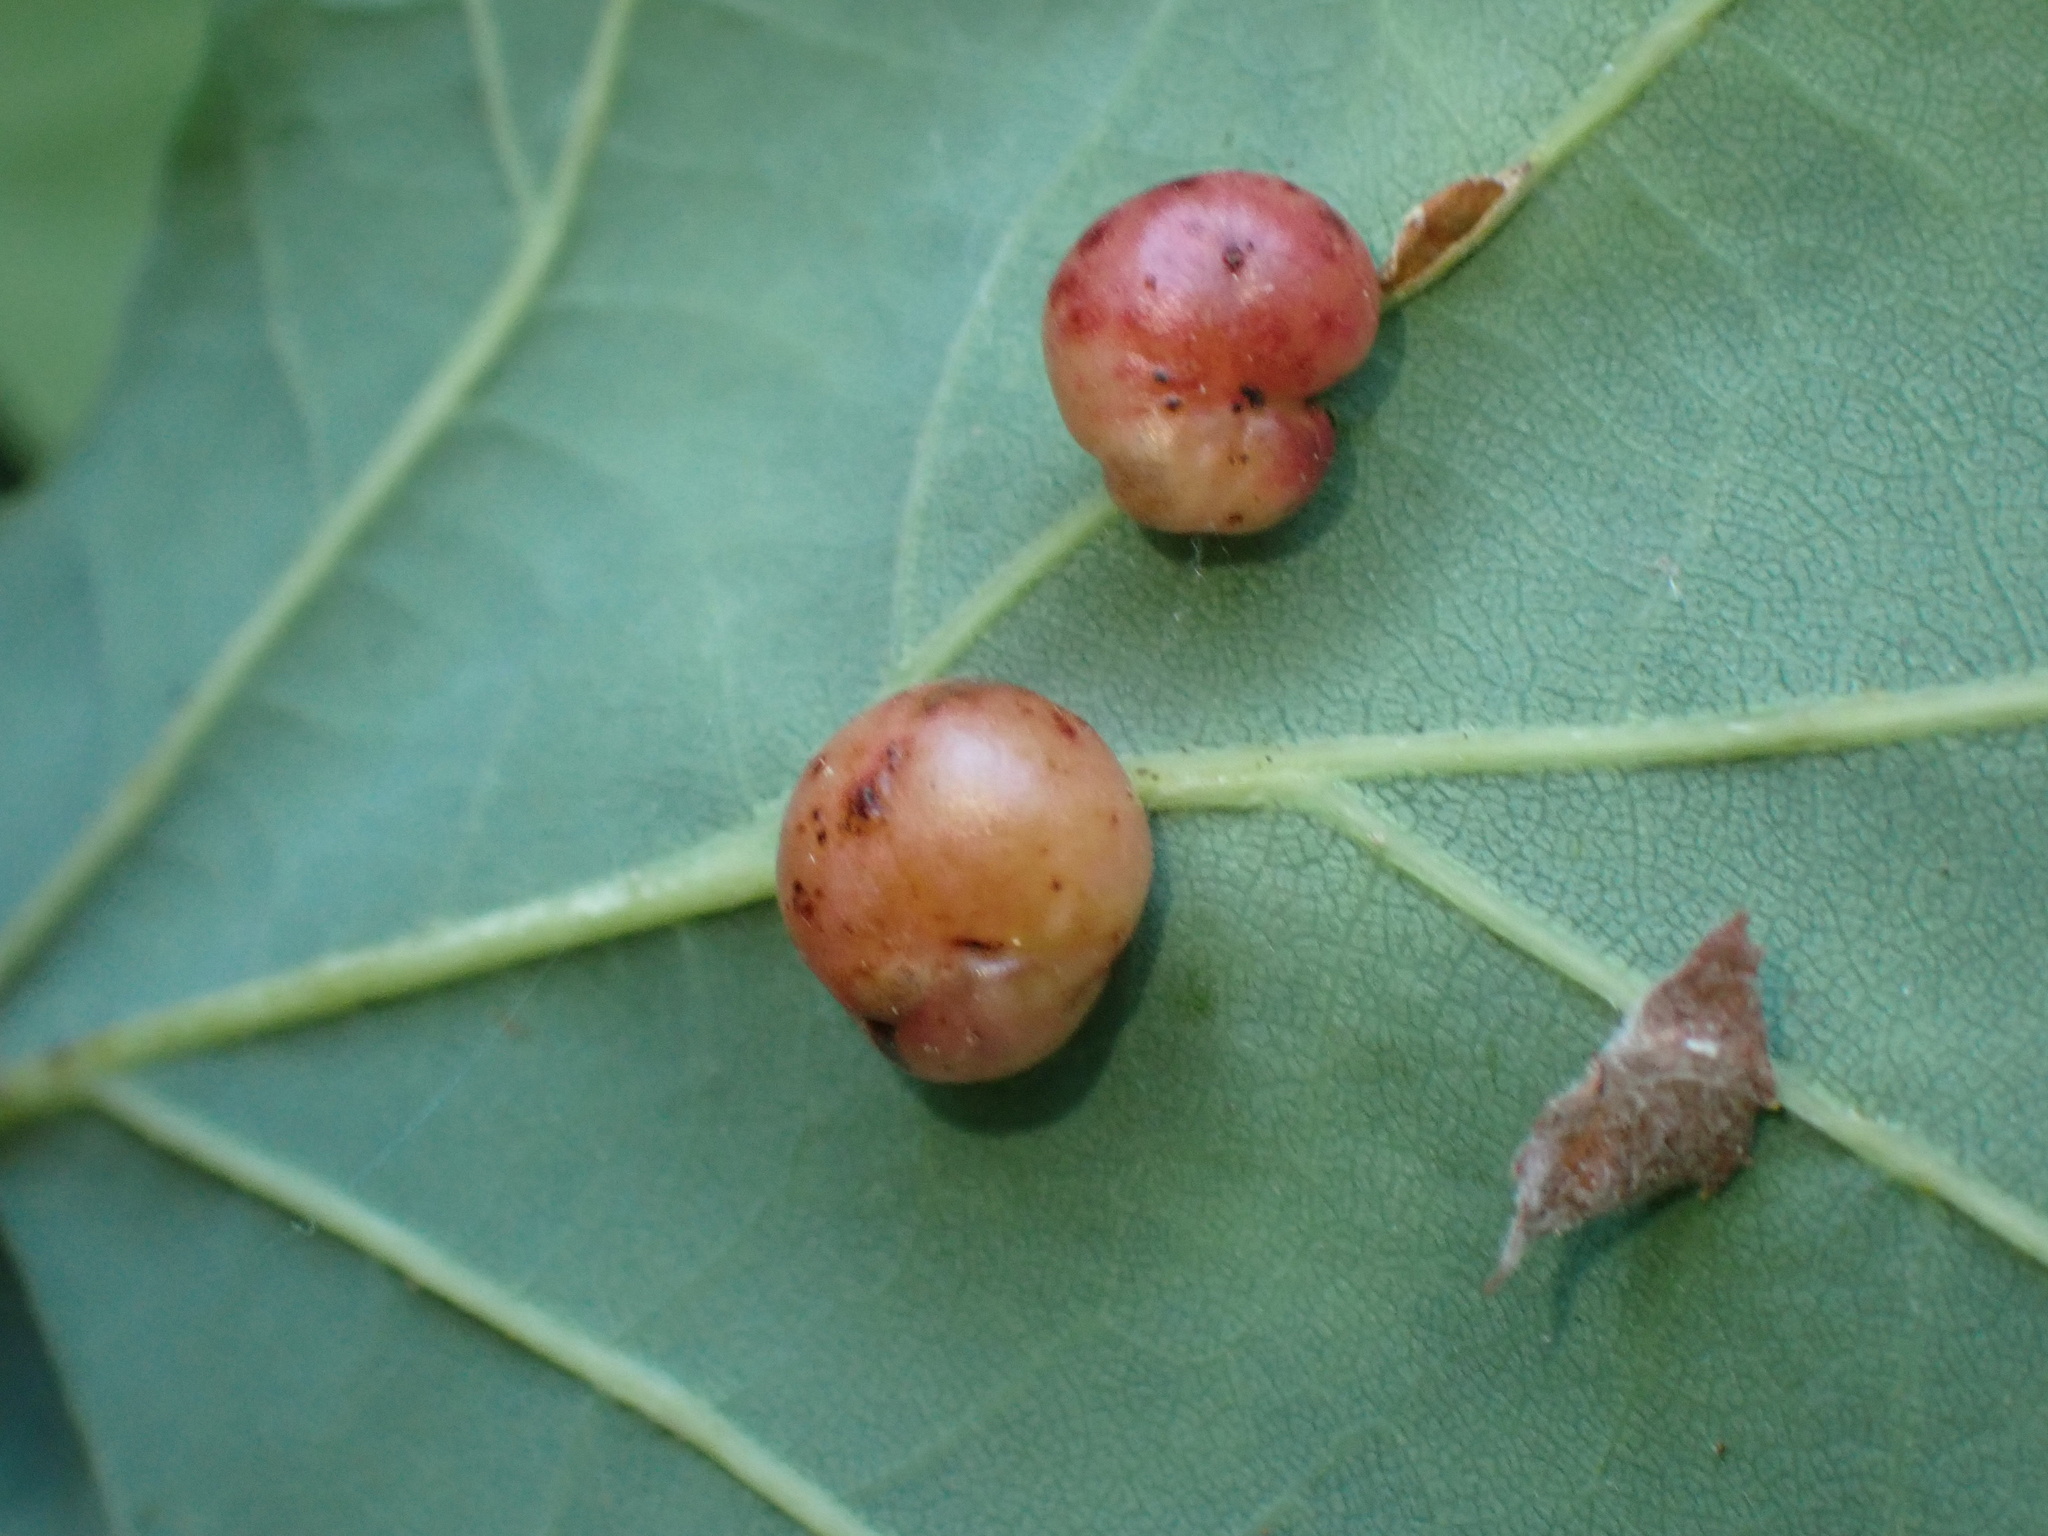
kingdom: Animalia
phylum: Arthropoda
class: Insecta
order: Hymenoptera
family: Cynipidae
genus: Cynips
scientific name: Cynips divisa
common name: Red currant gall
